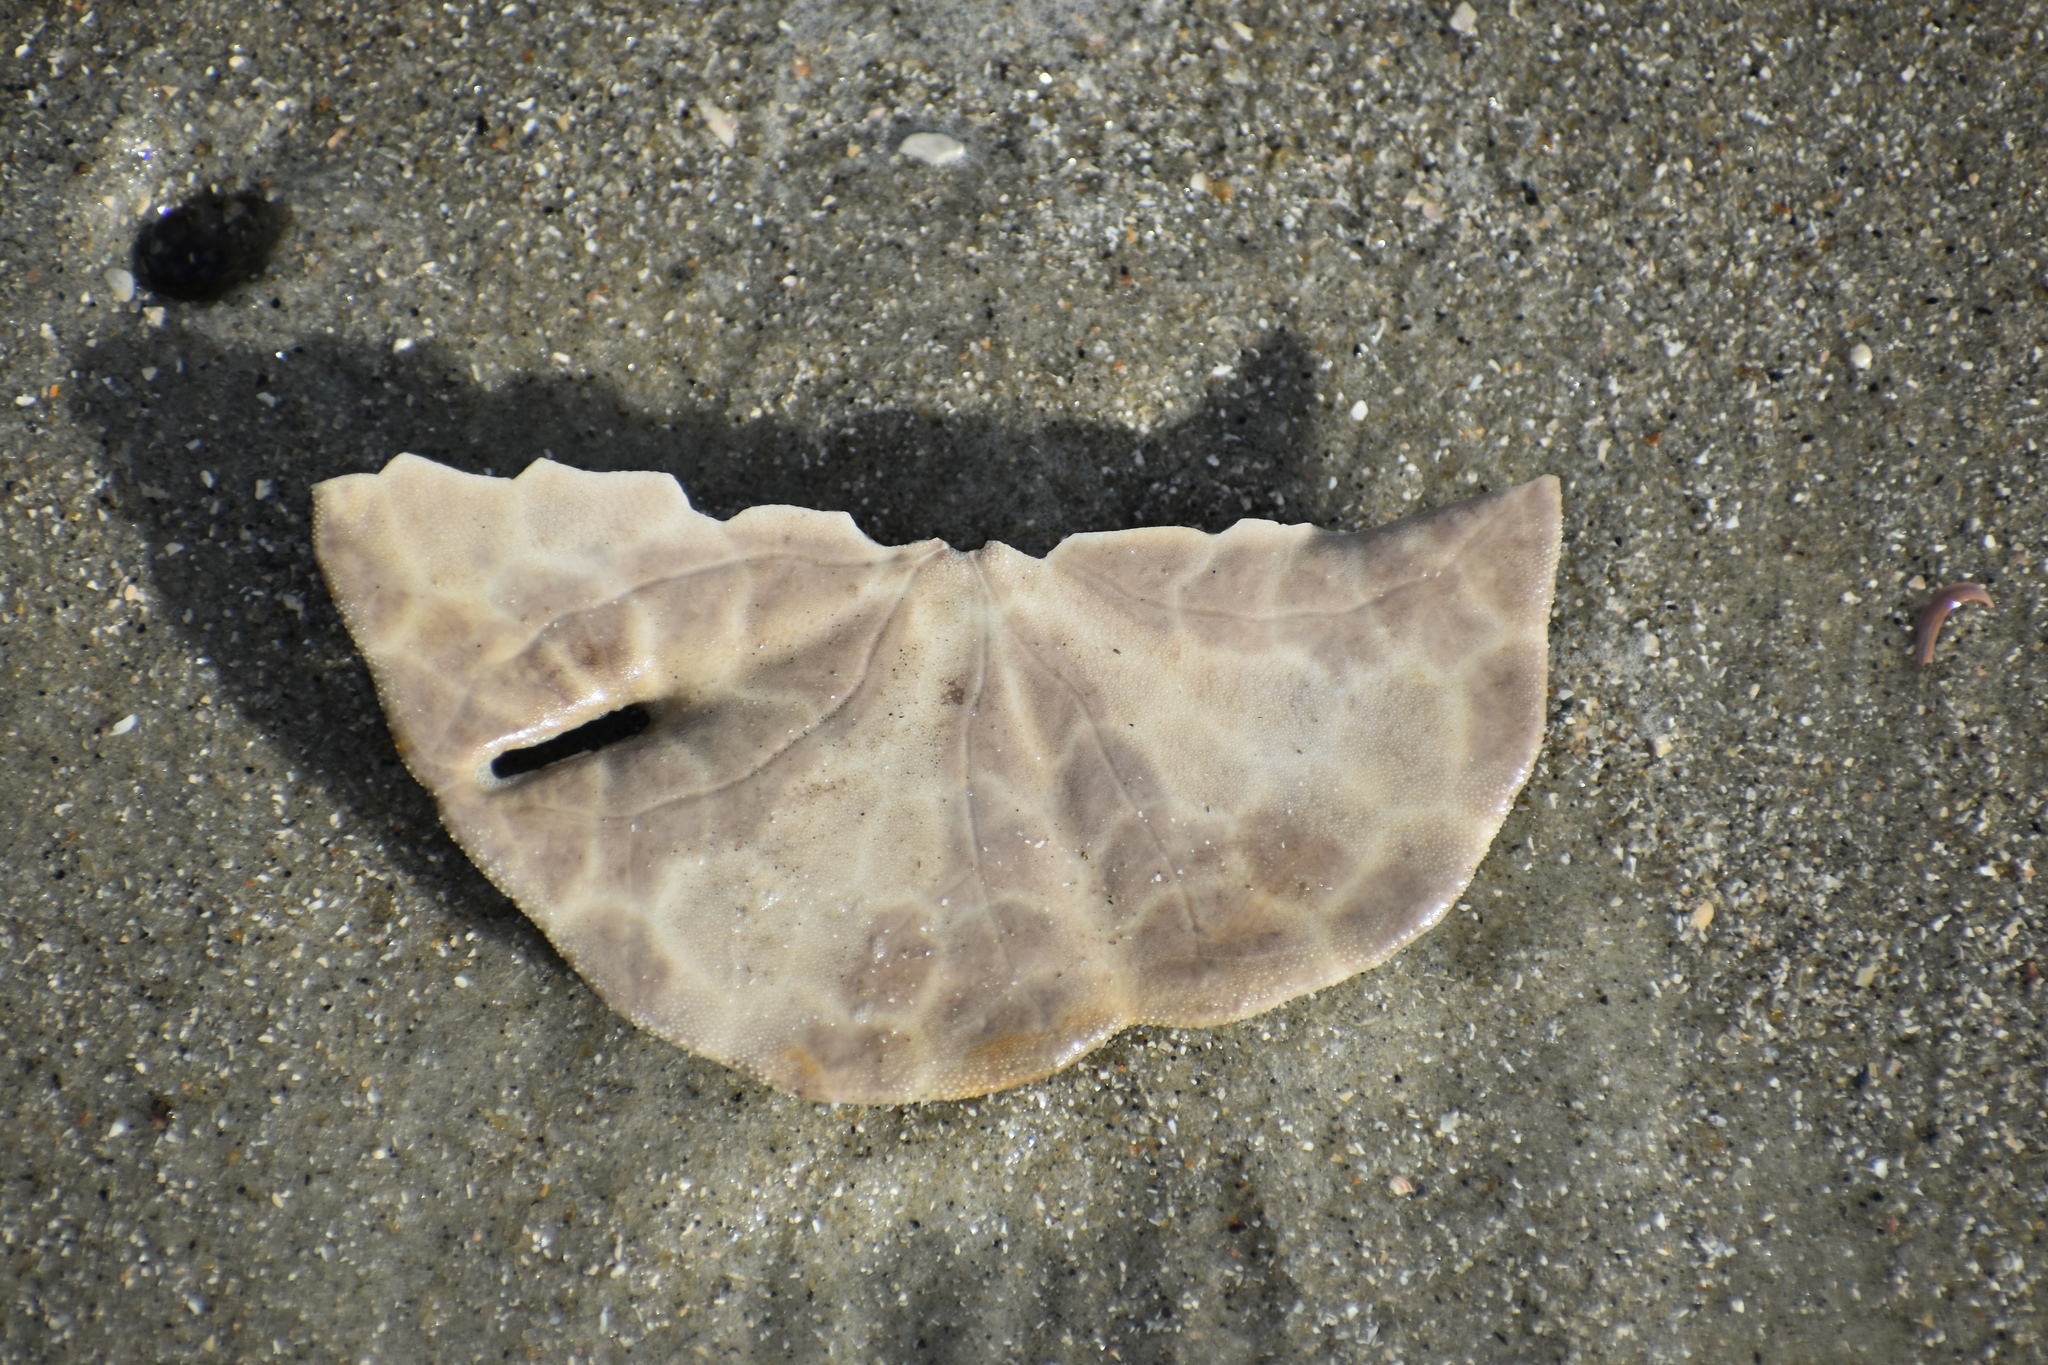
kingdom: Animalia
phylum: Echinodermata
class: Echinoidea
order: Echinolampadacea
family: Mellitidae
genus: Mellita
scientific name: Mellita isometra
